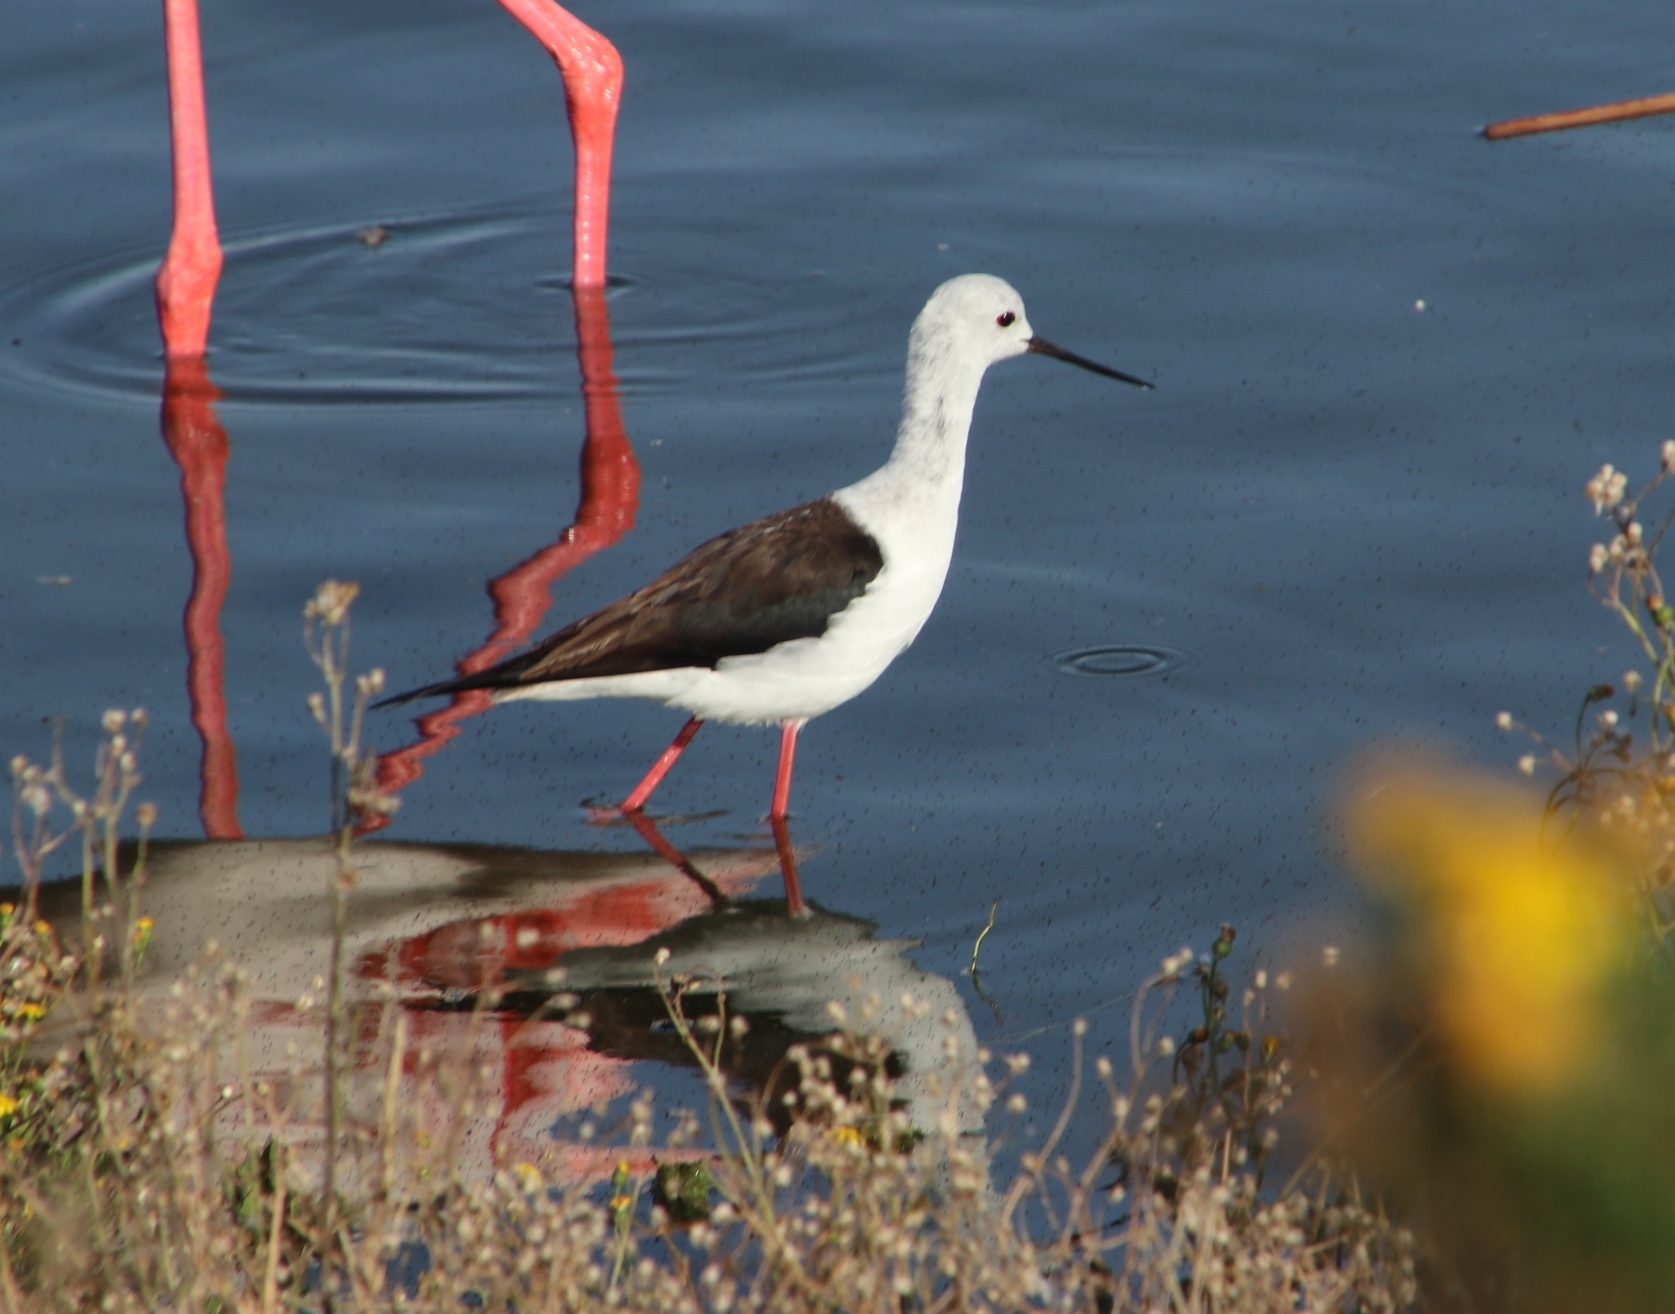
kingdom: Animalia
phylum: Chordata
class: Aves
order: Charadriiformes
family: Recurvirostridae
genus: Himantopus
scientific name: Himantopus himantopus
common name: Black-winged stilt
